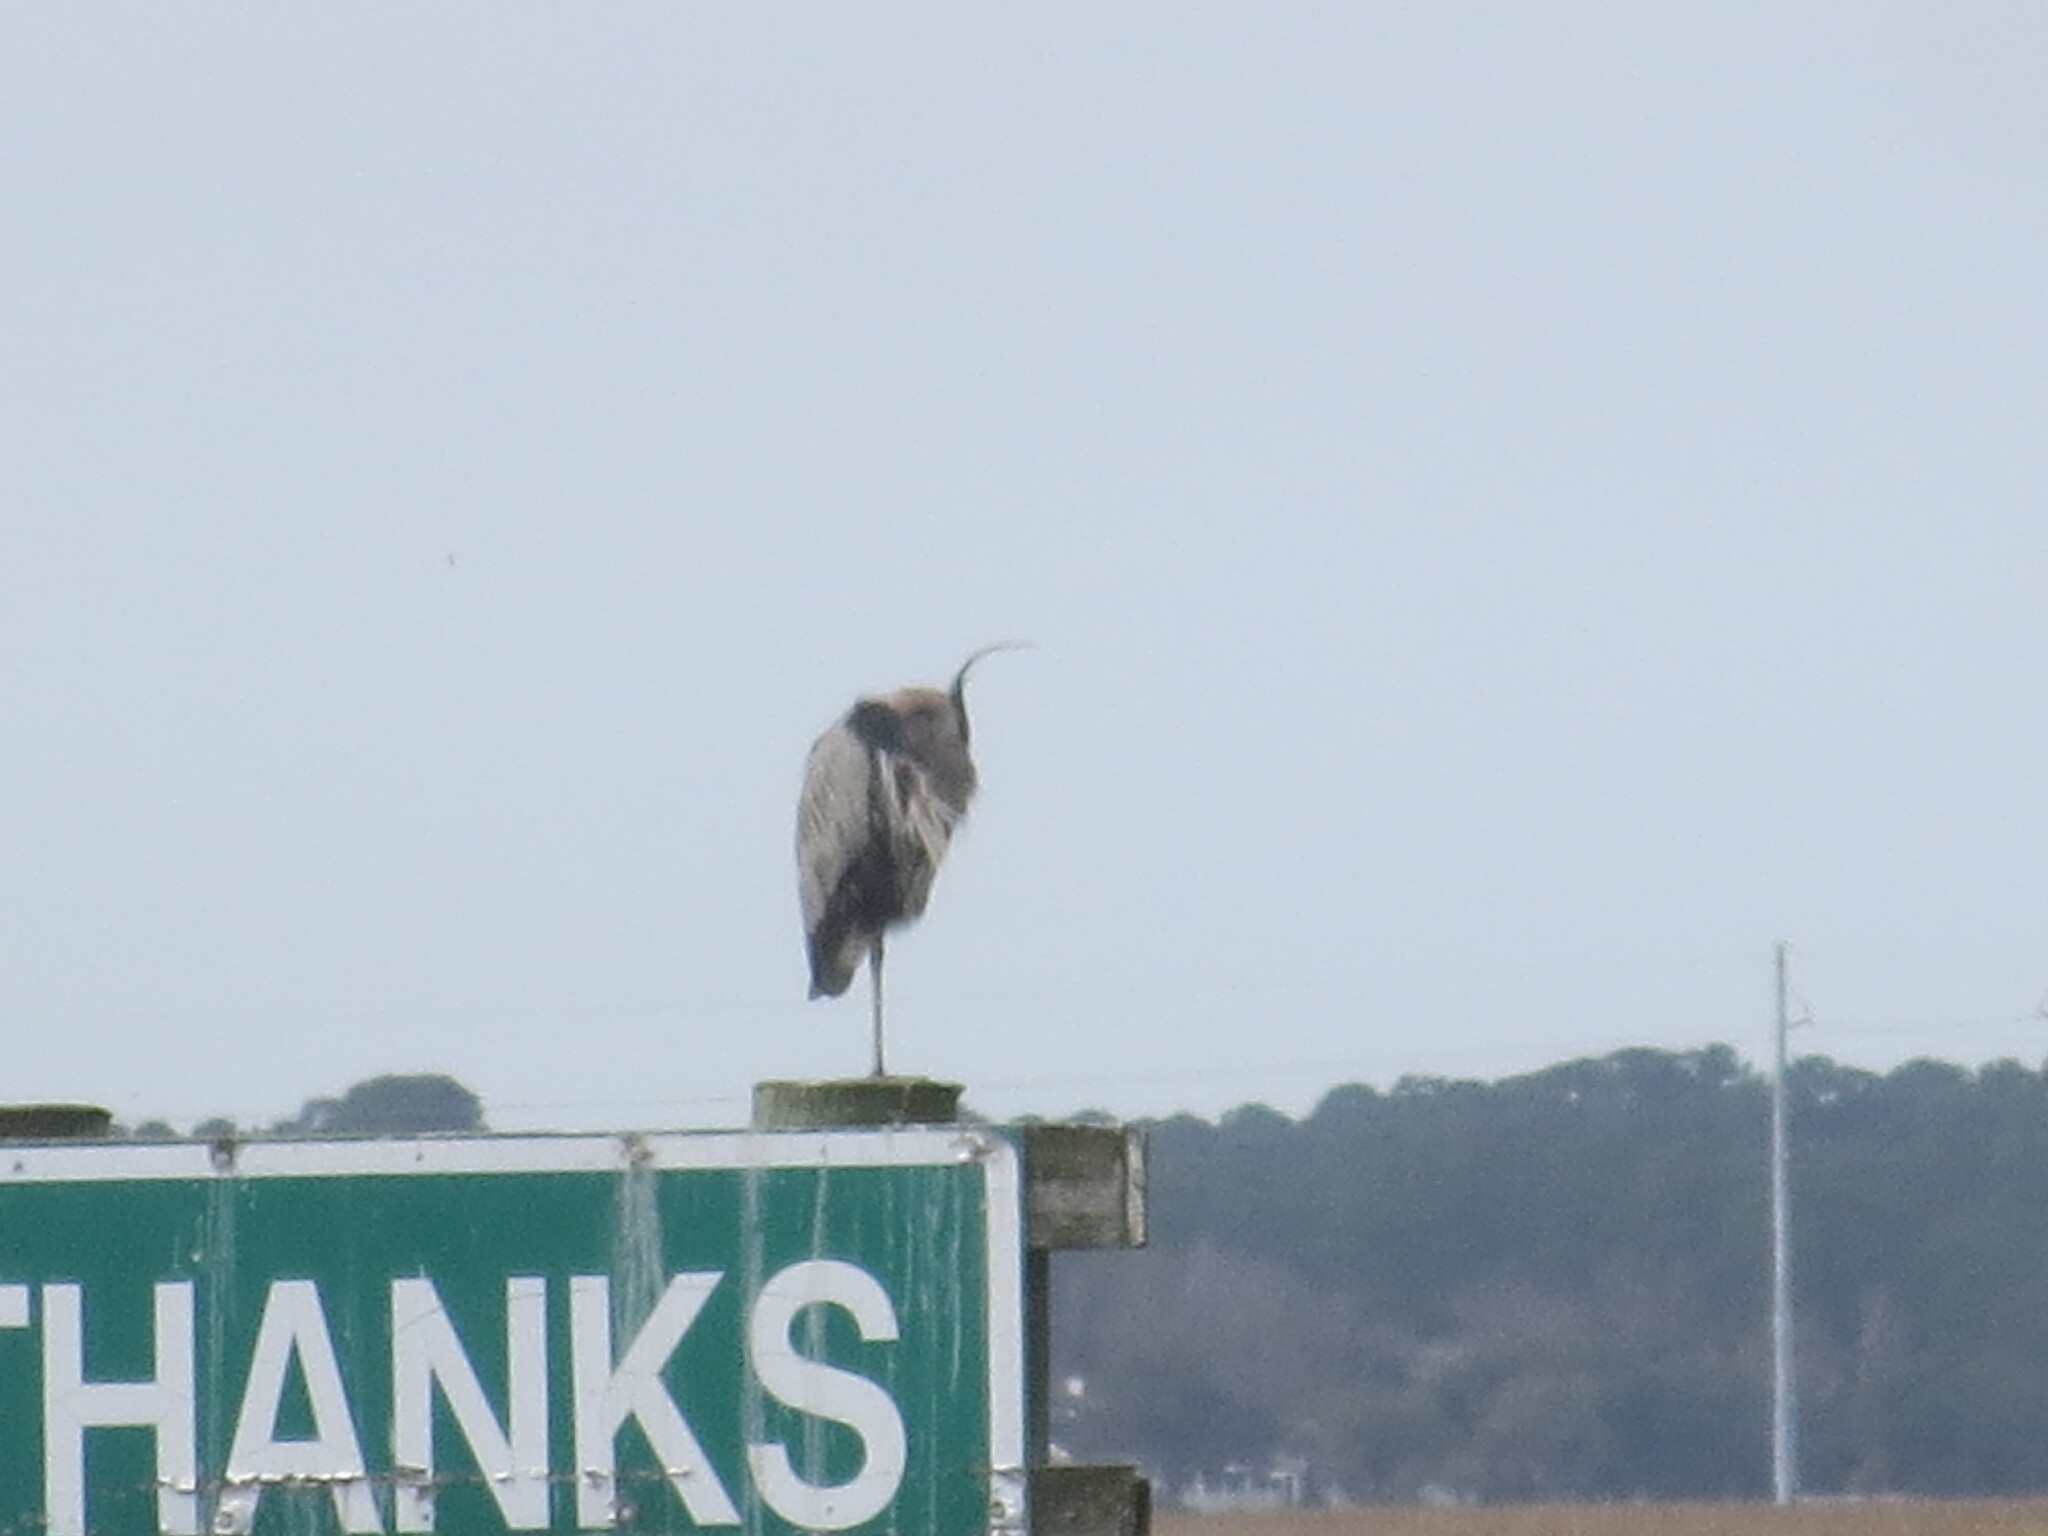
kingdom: Animalia
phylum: Chordata
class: Aves
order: Pelecaniformes
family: Ardeidae
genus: Ardea
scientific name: Ardea herodias
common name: Great blue heron
